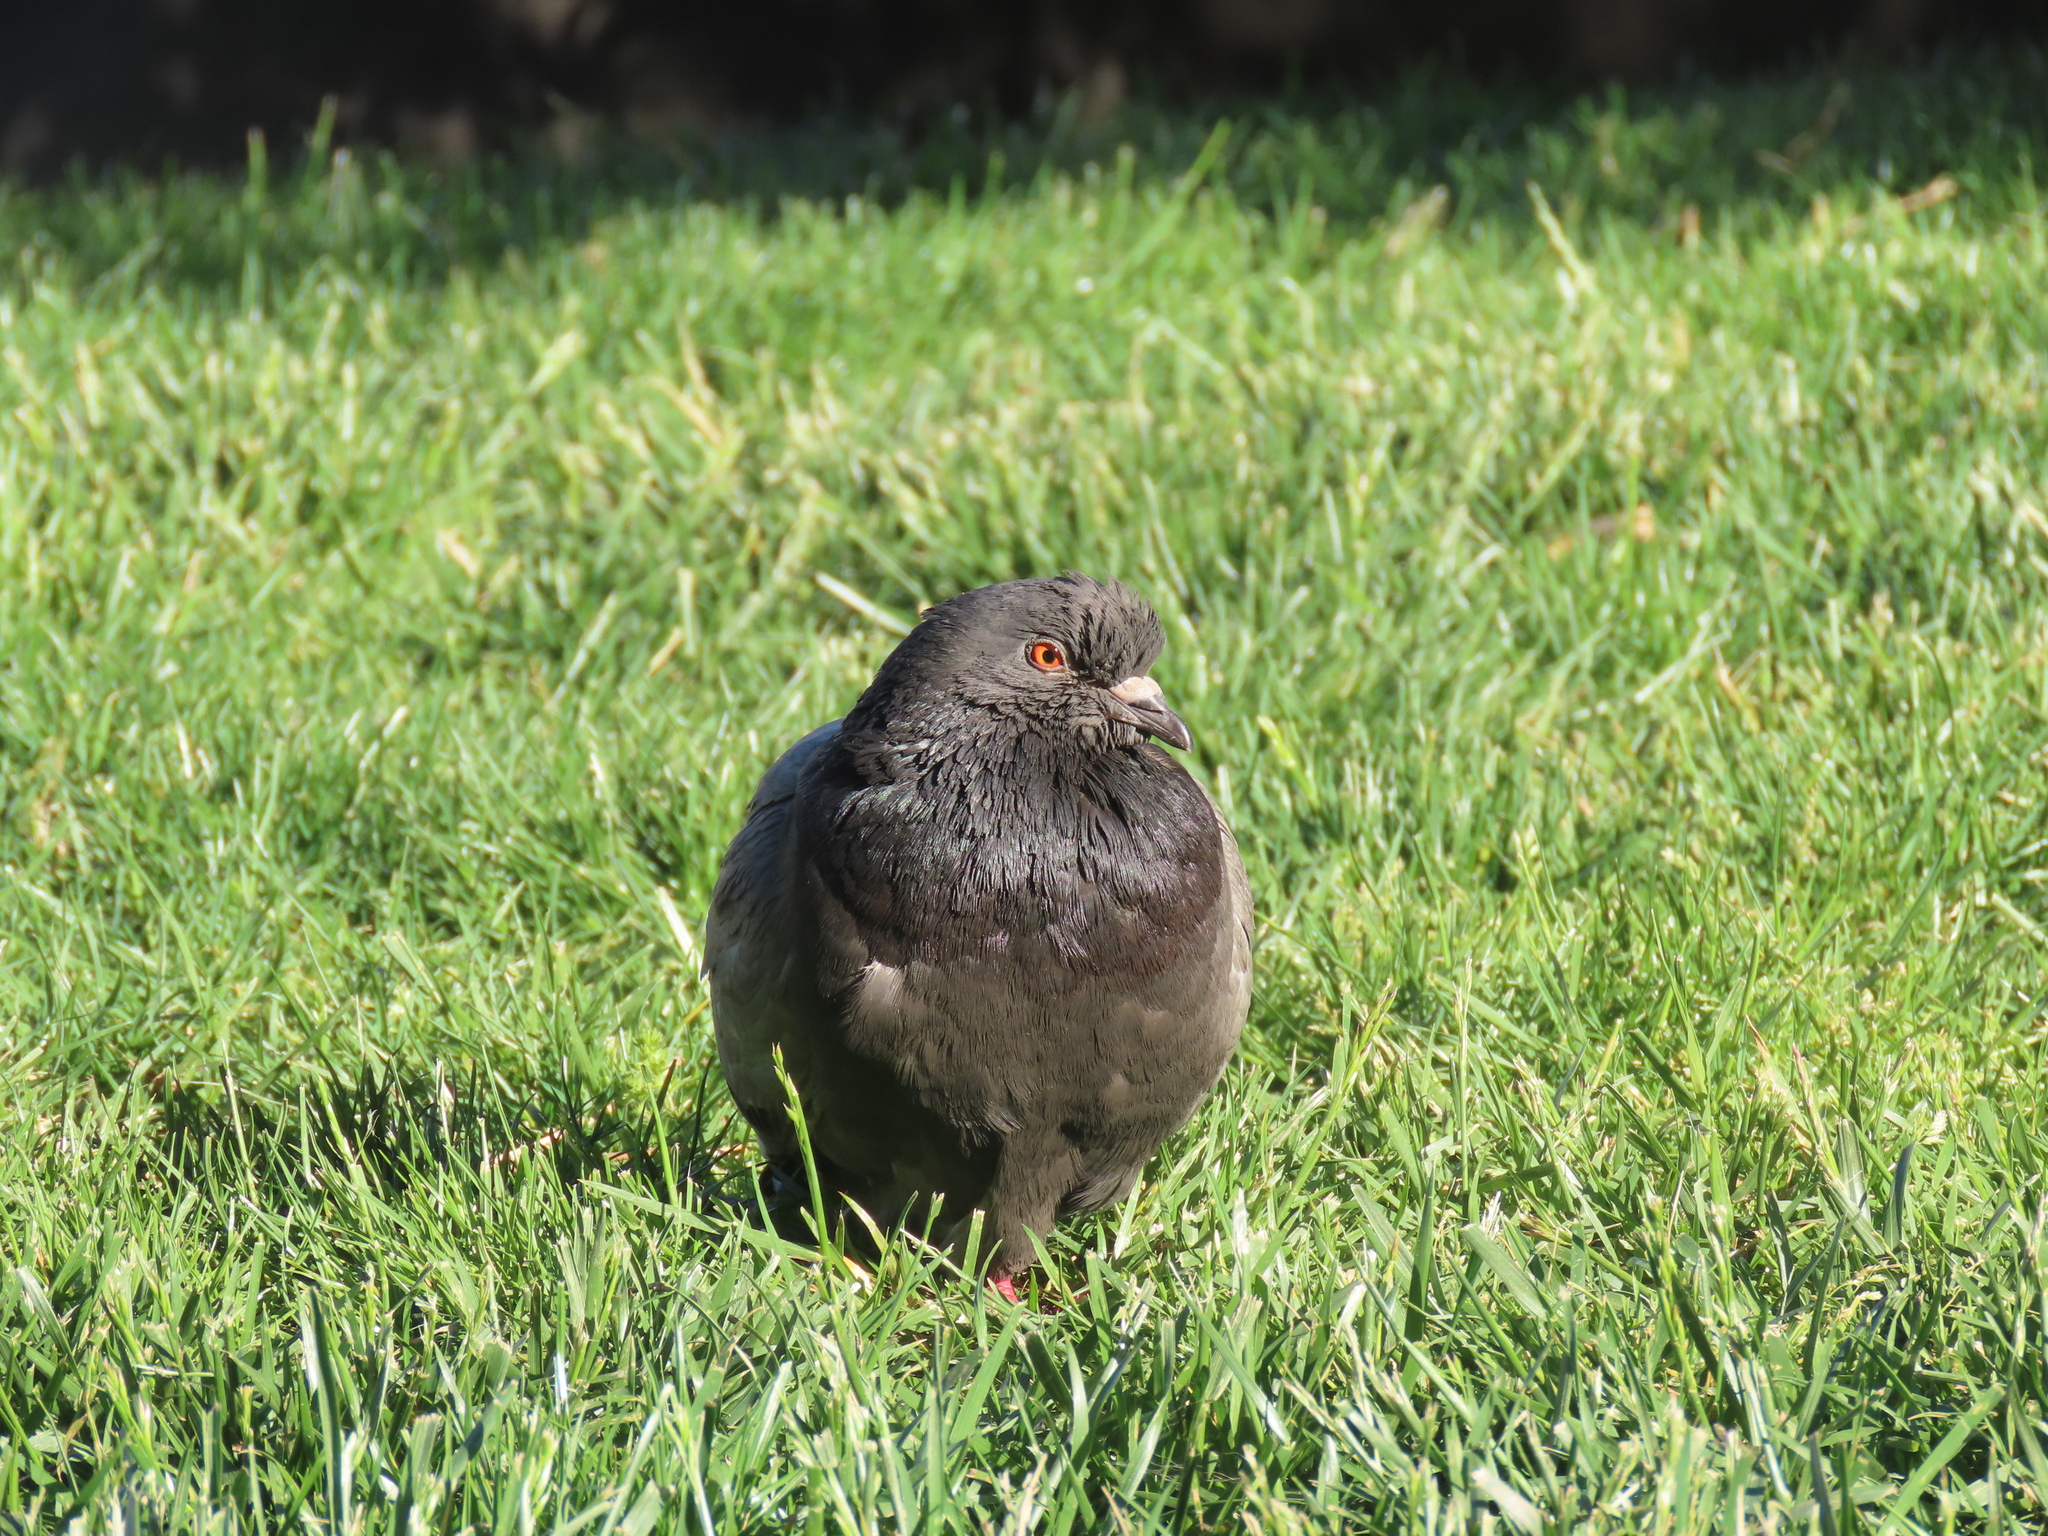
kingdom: Animalia
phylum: Chordata
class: Aves
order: Columbiformes
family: Columbidae
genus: Columba
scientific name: Columba livia
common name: Rock pigeon
